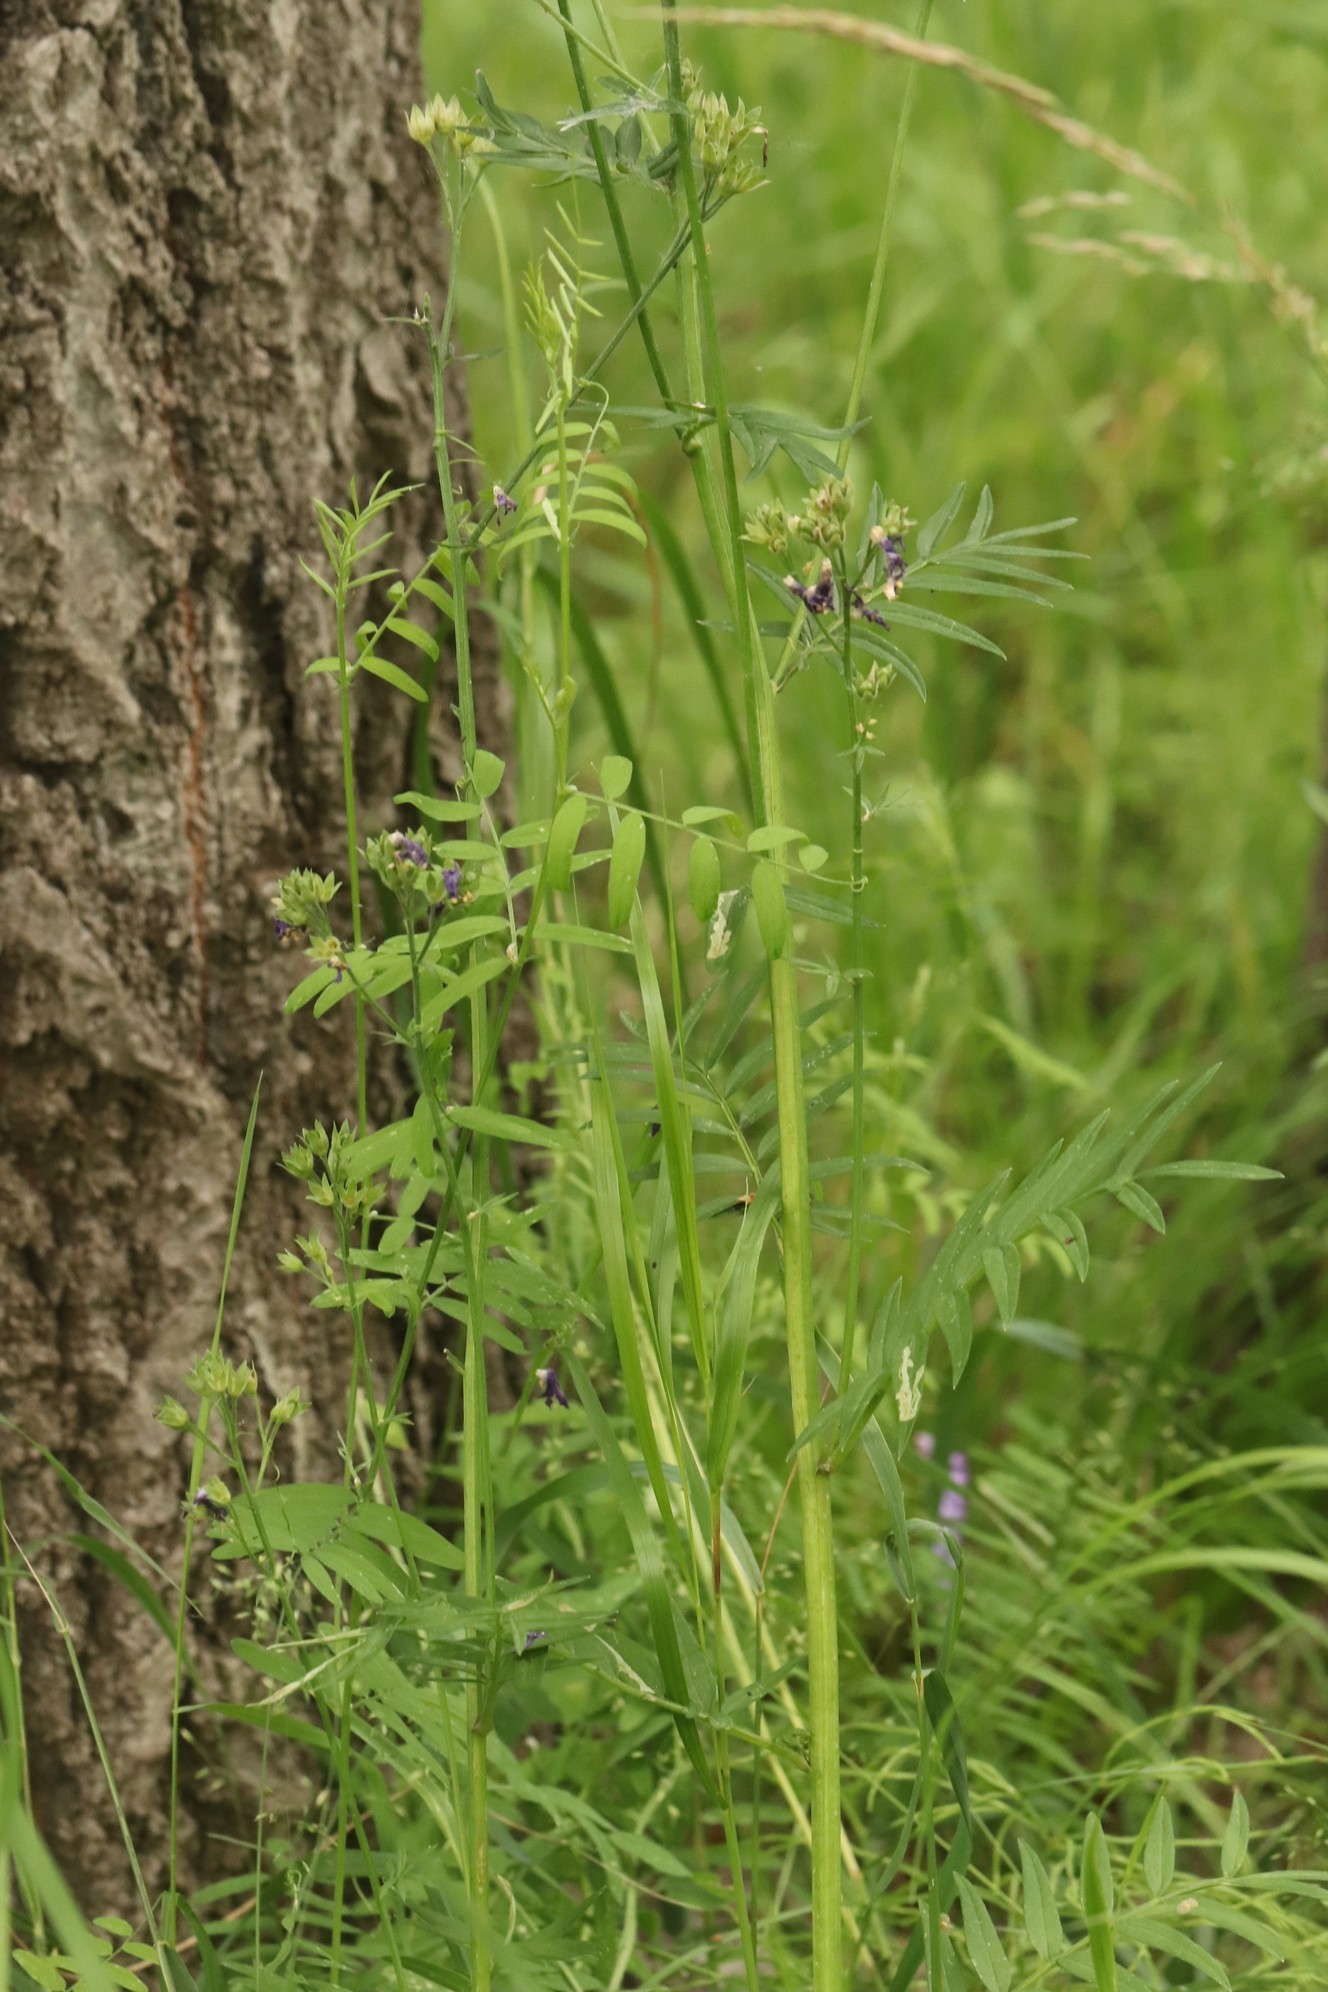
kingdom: Plantae
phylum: Tracheophyta
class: Magnoliopsida
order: Ericales
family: Polemoniaceae
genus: Polemonium
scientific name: Polemonium caeruleum
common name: Jacob's-ladder
